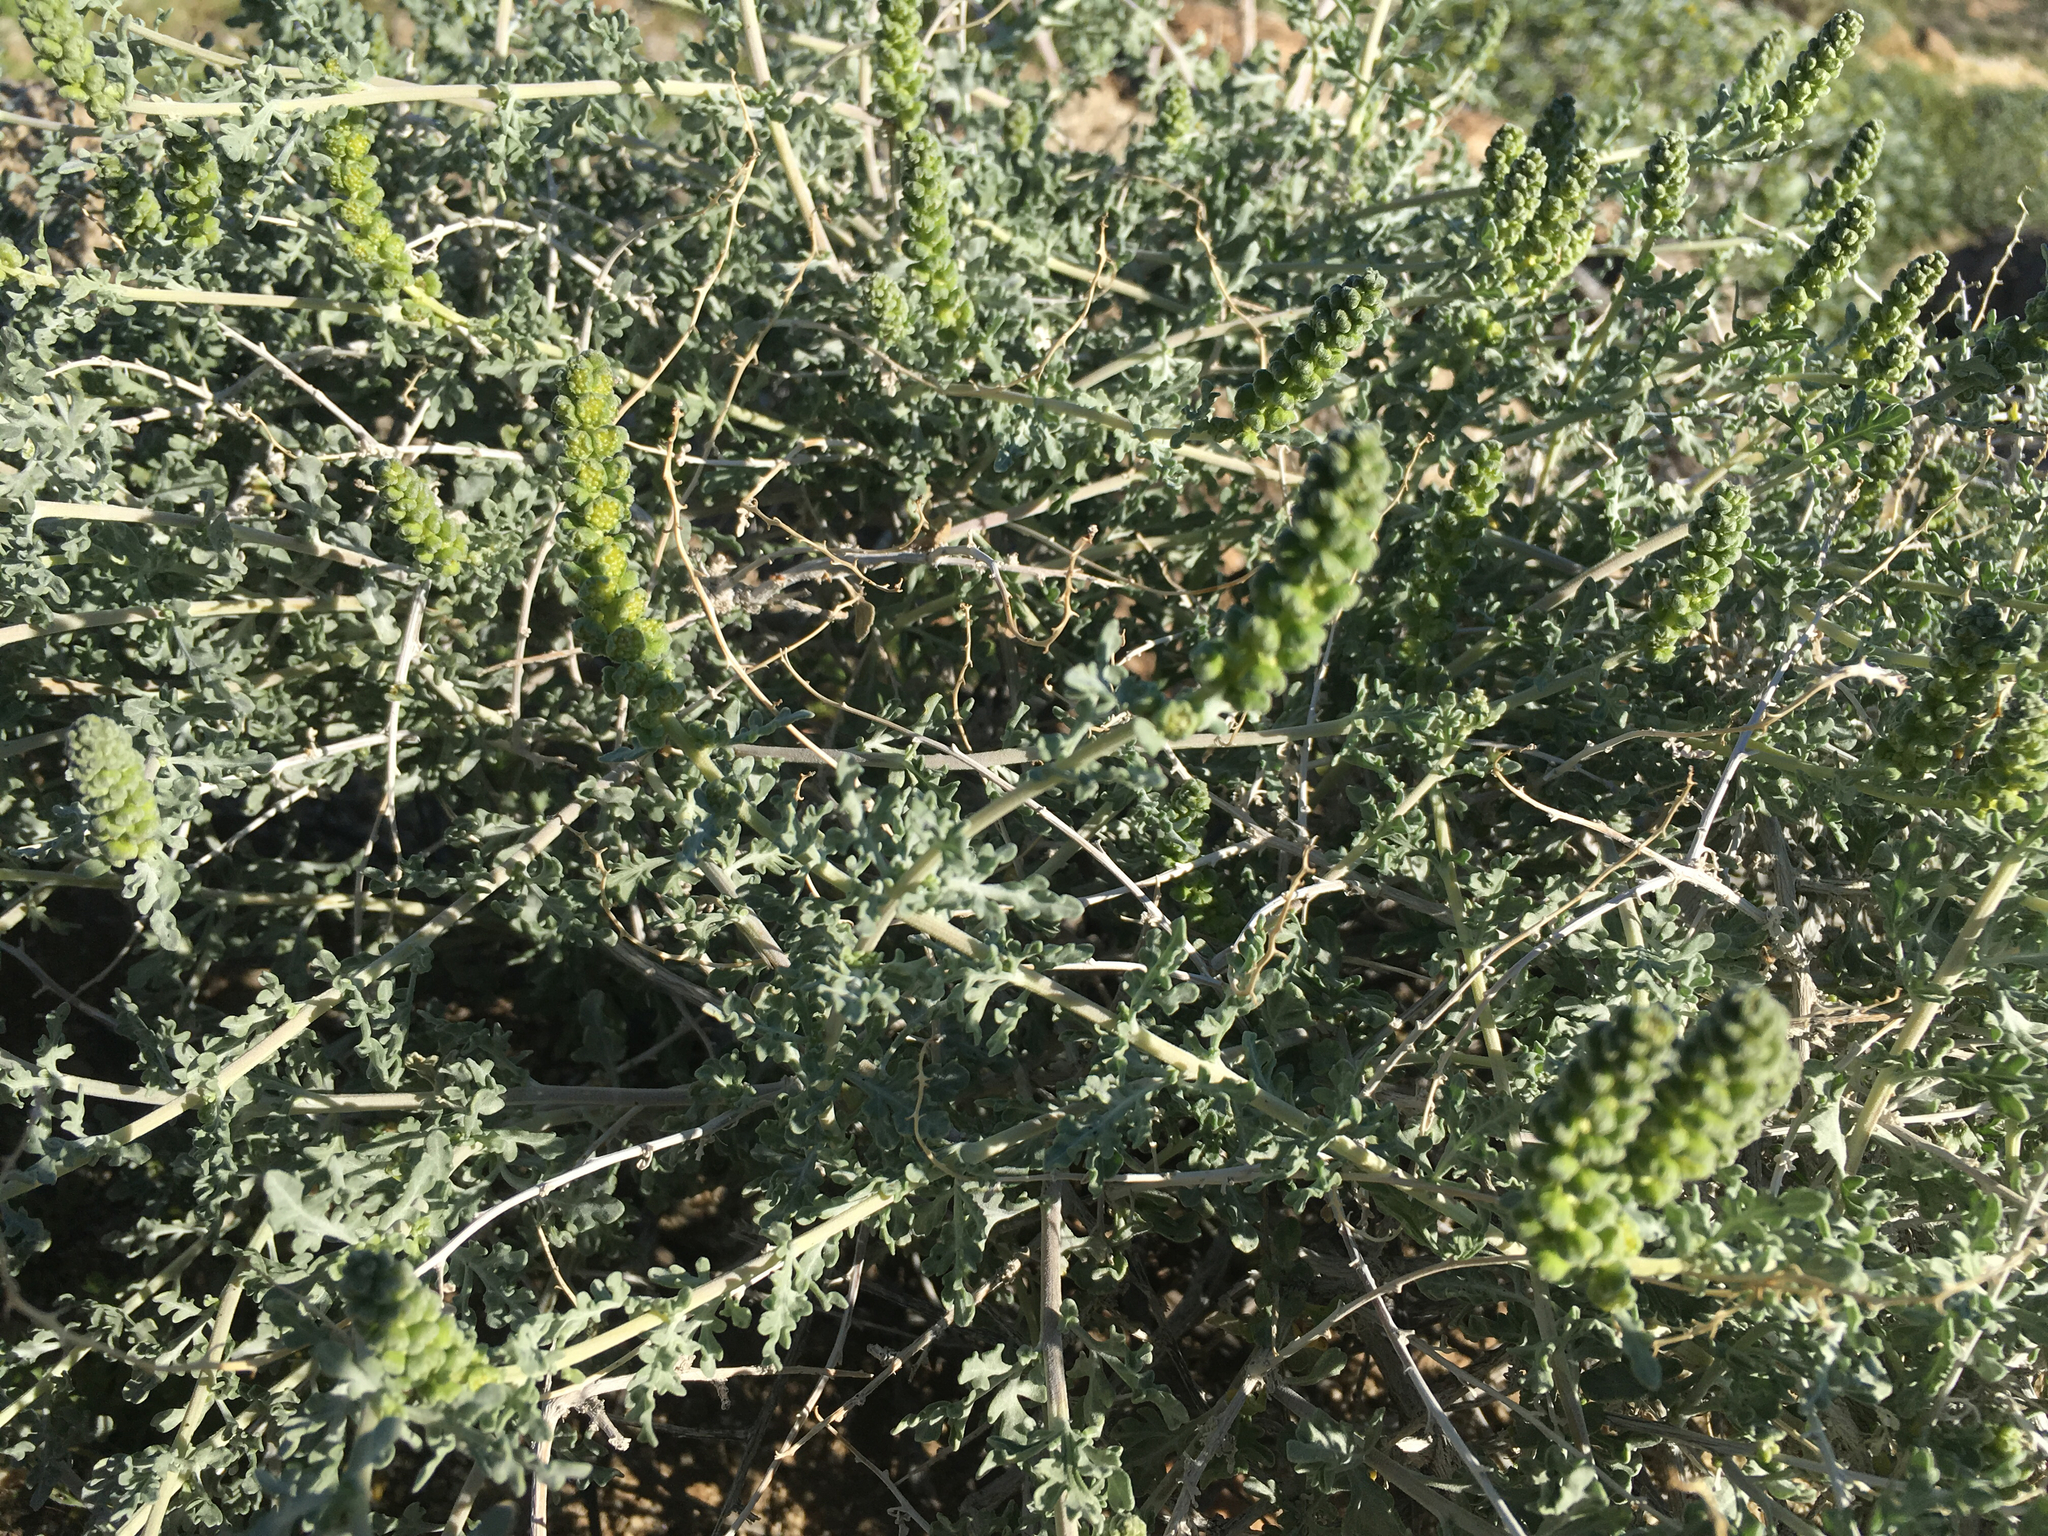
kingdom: Plantae
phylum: Tracheophyta
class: Magnoliopsida
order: Asterales
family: Asteraceae
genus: Ambrosia
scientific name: Ambrosia dumosa
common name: Bur-sage
